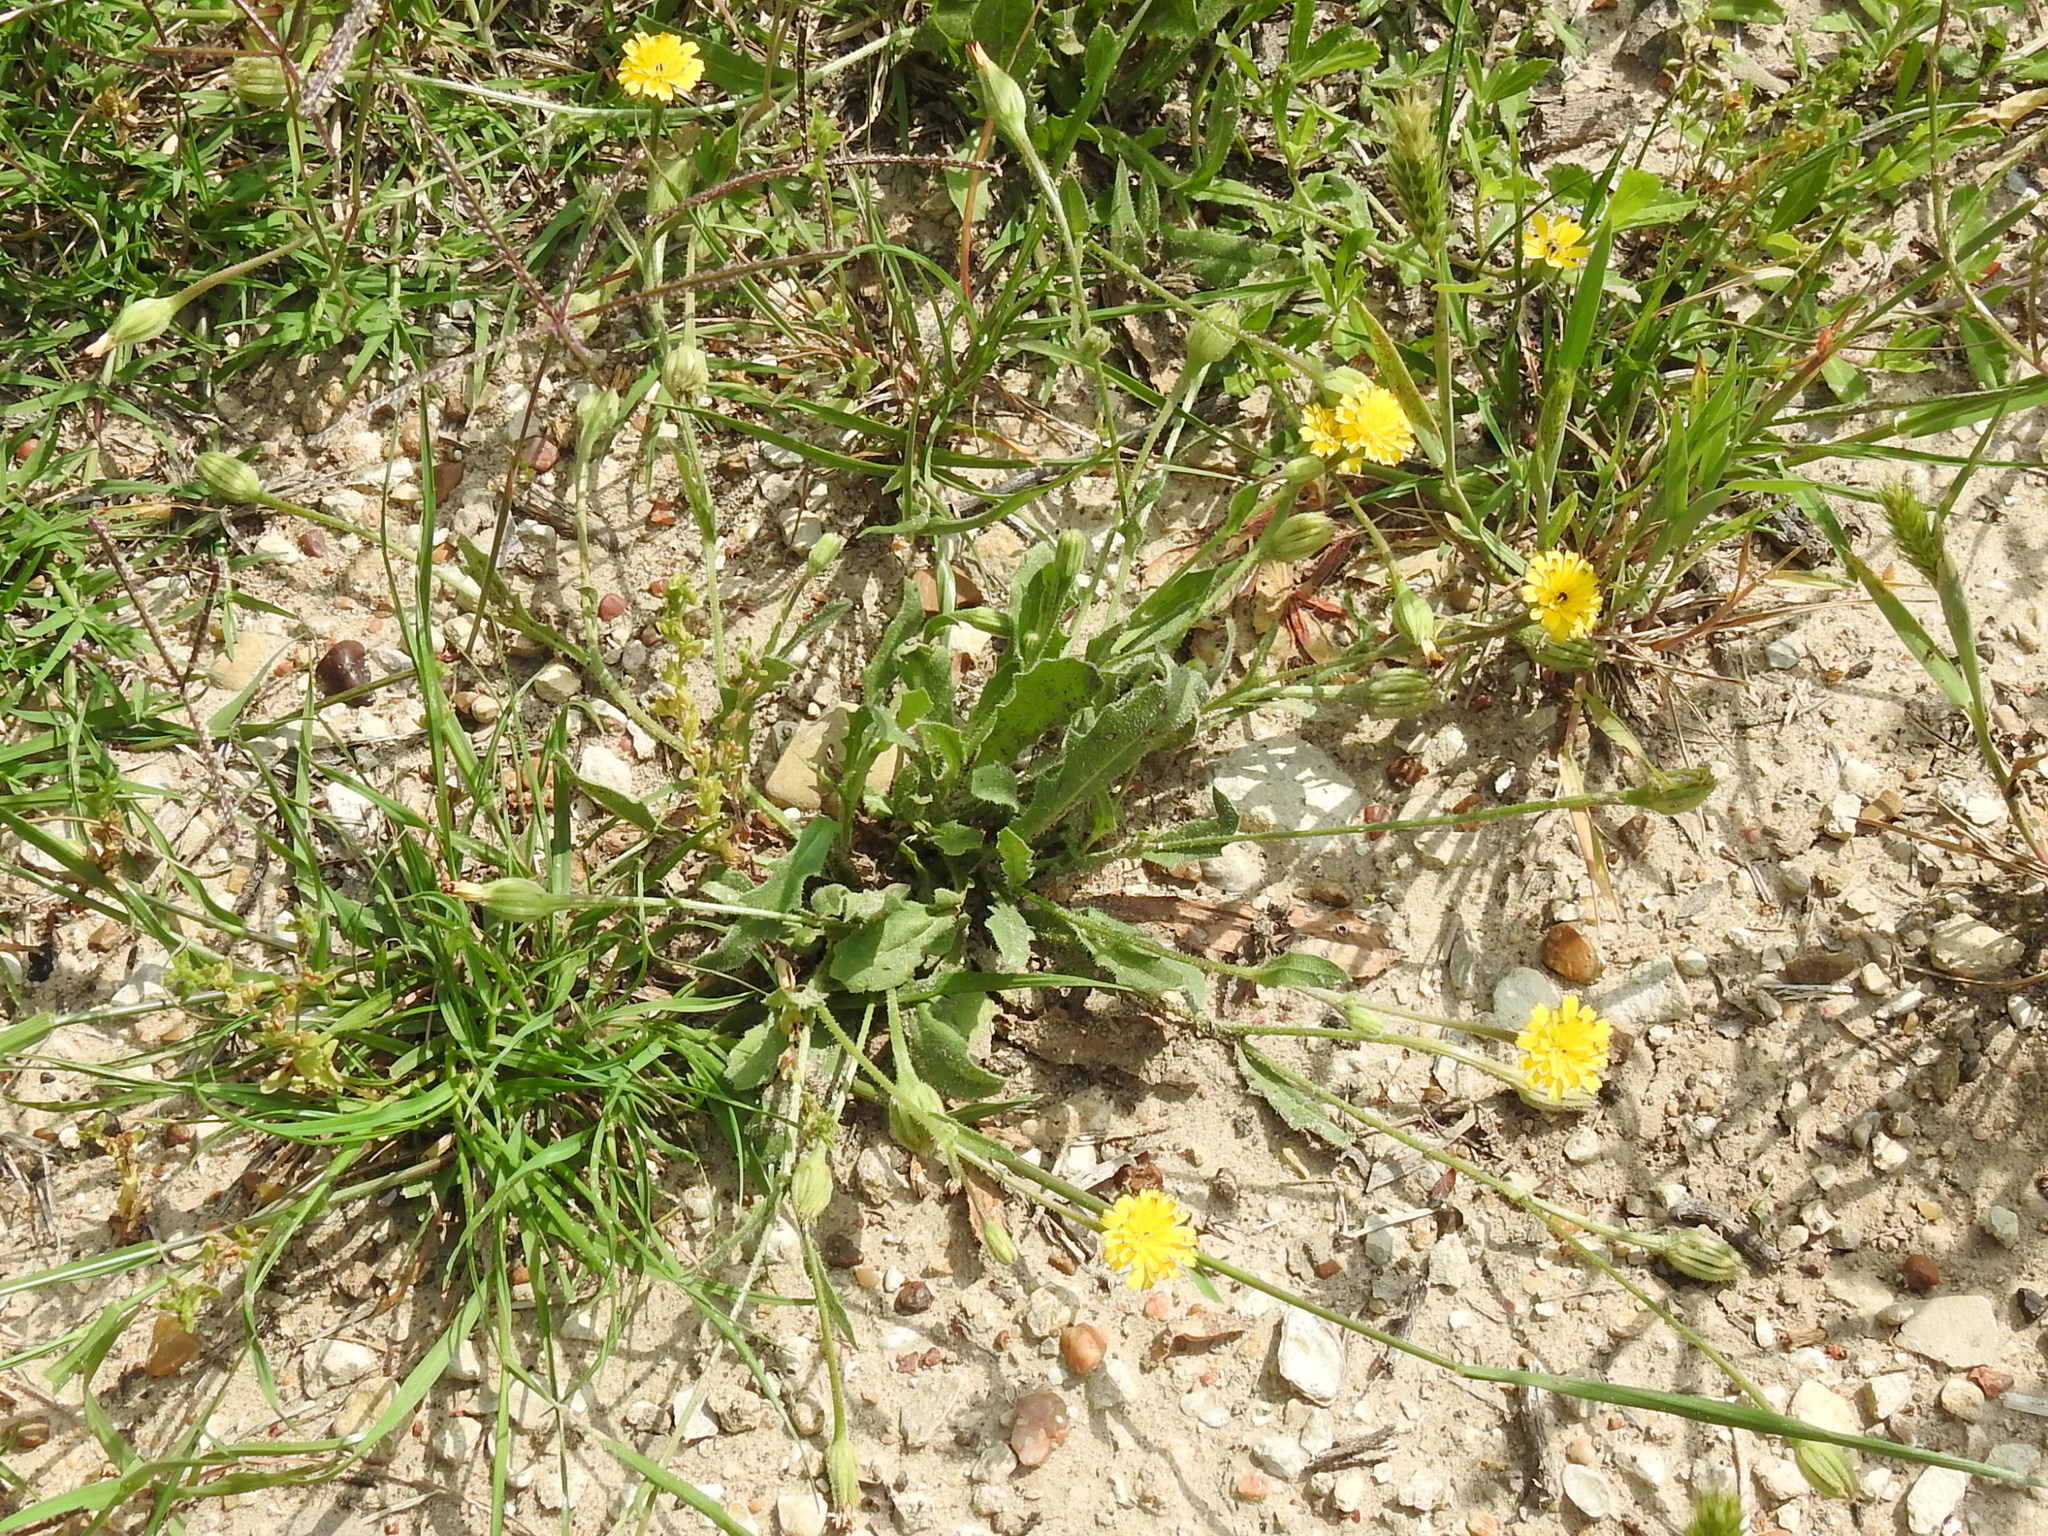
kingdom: Plantae
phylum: Tracheophyta
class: Magnoliopsida
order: Asterales
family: Asteraceae
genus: Hedypnois
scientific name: Hedypnois rhagadioloides
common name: Cretan weed
